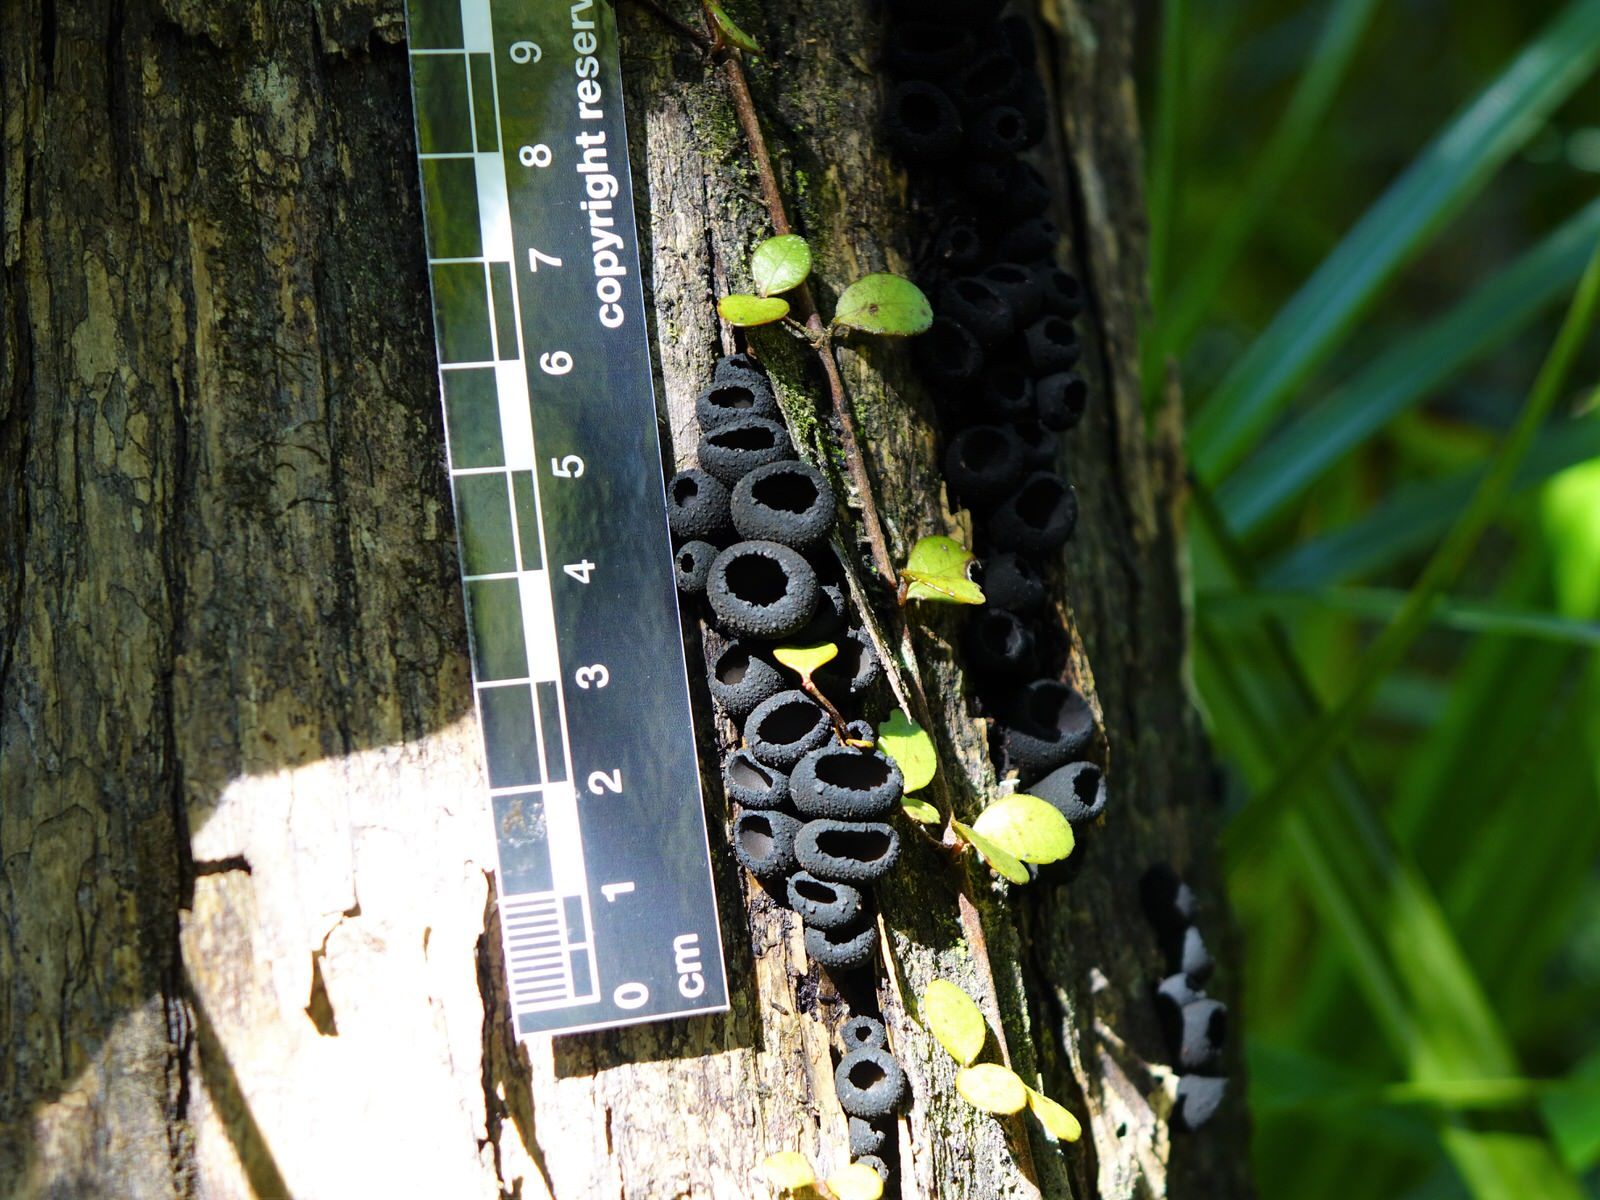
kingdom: Fungi
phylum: Ascomycota
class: Pezizomycetes
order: Pezizales
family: Sarcosomataceae
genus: Plectania
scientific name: Plectania rhytidia
